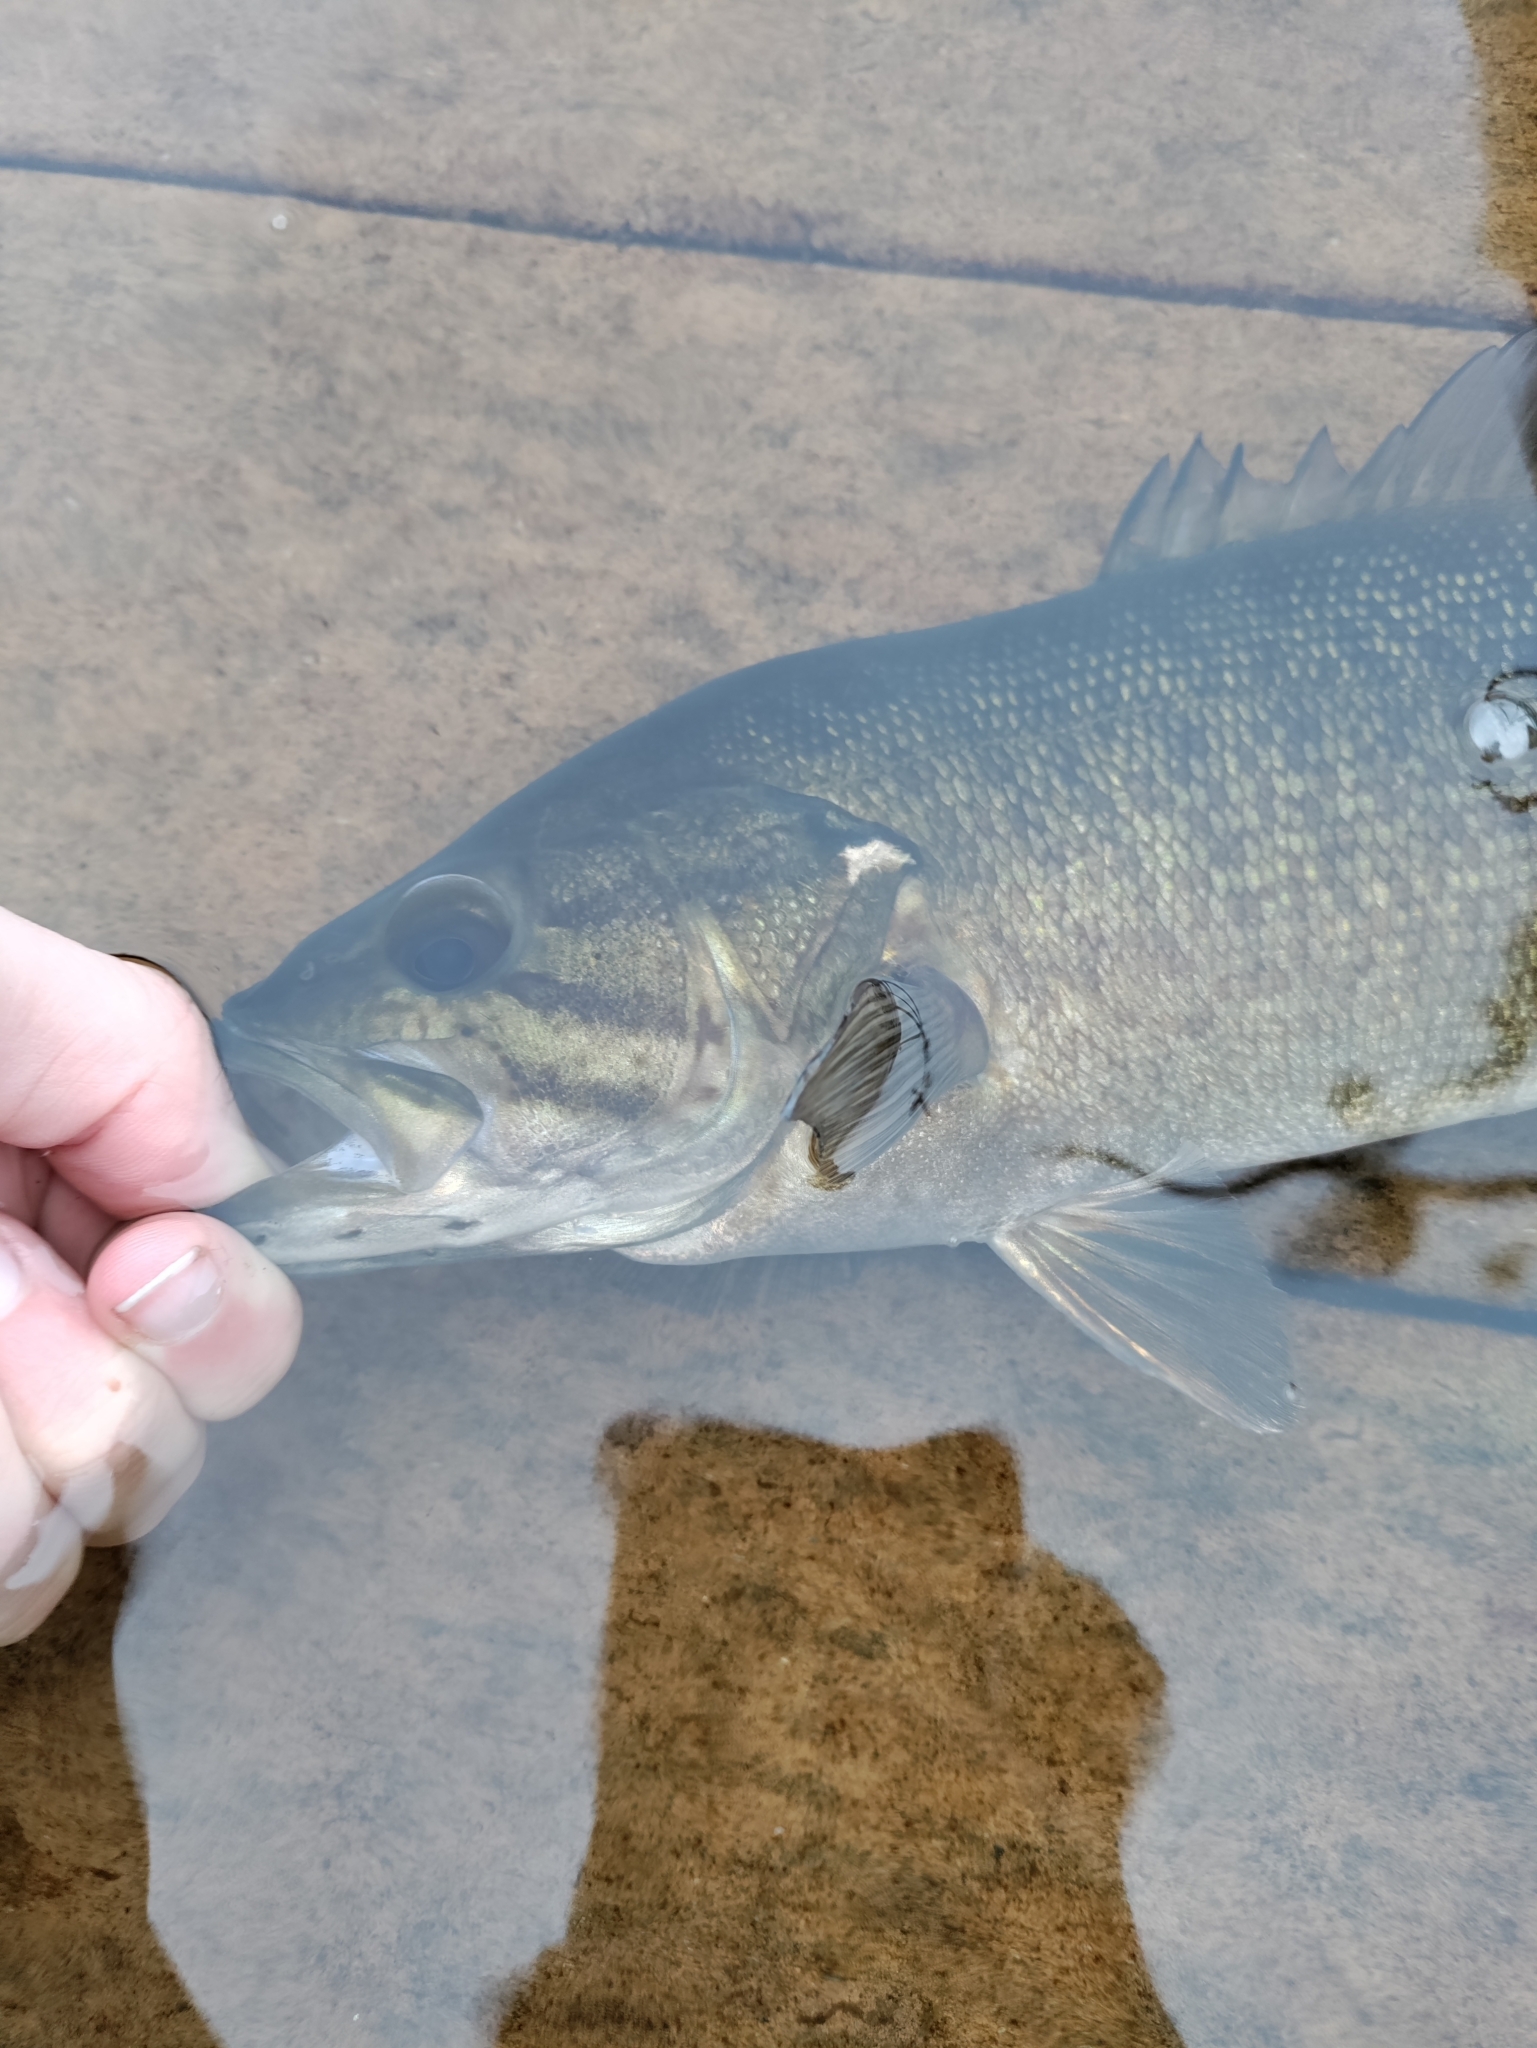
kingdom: Animalia
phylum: Chordata
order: Perciformes
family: Centrarchidae
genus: Micropterus
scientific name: Micropterus dolomieu
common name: Smallmouth bass
